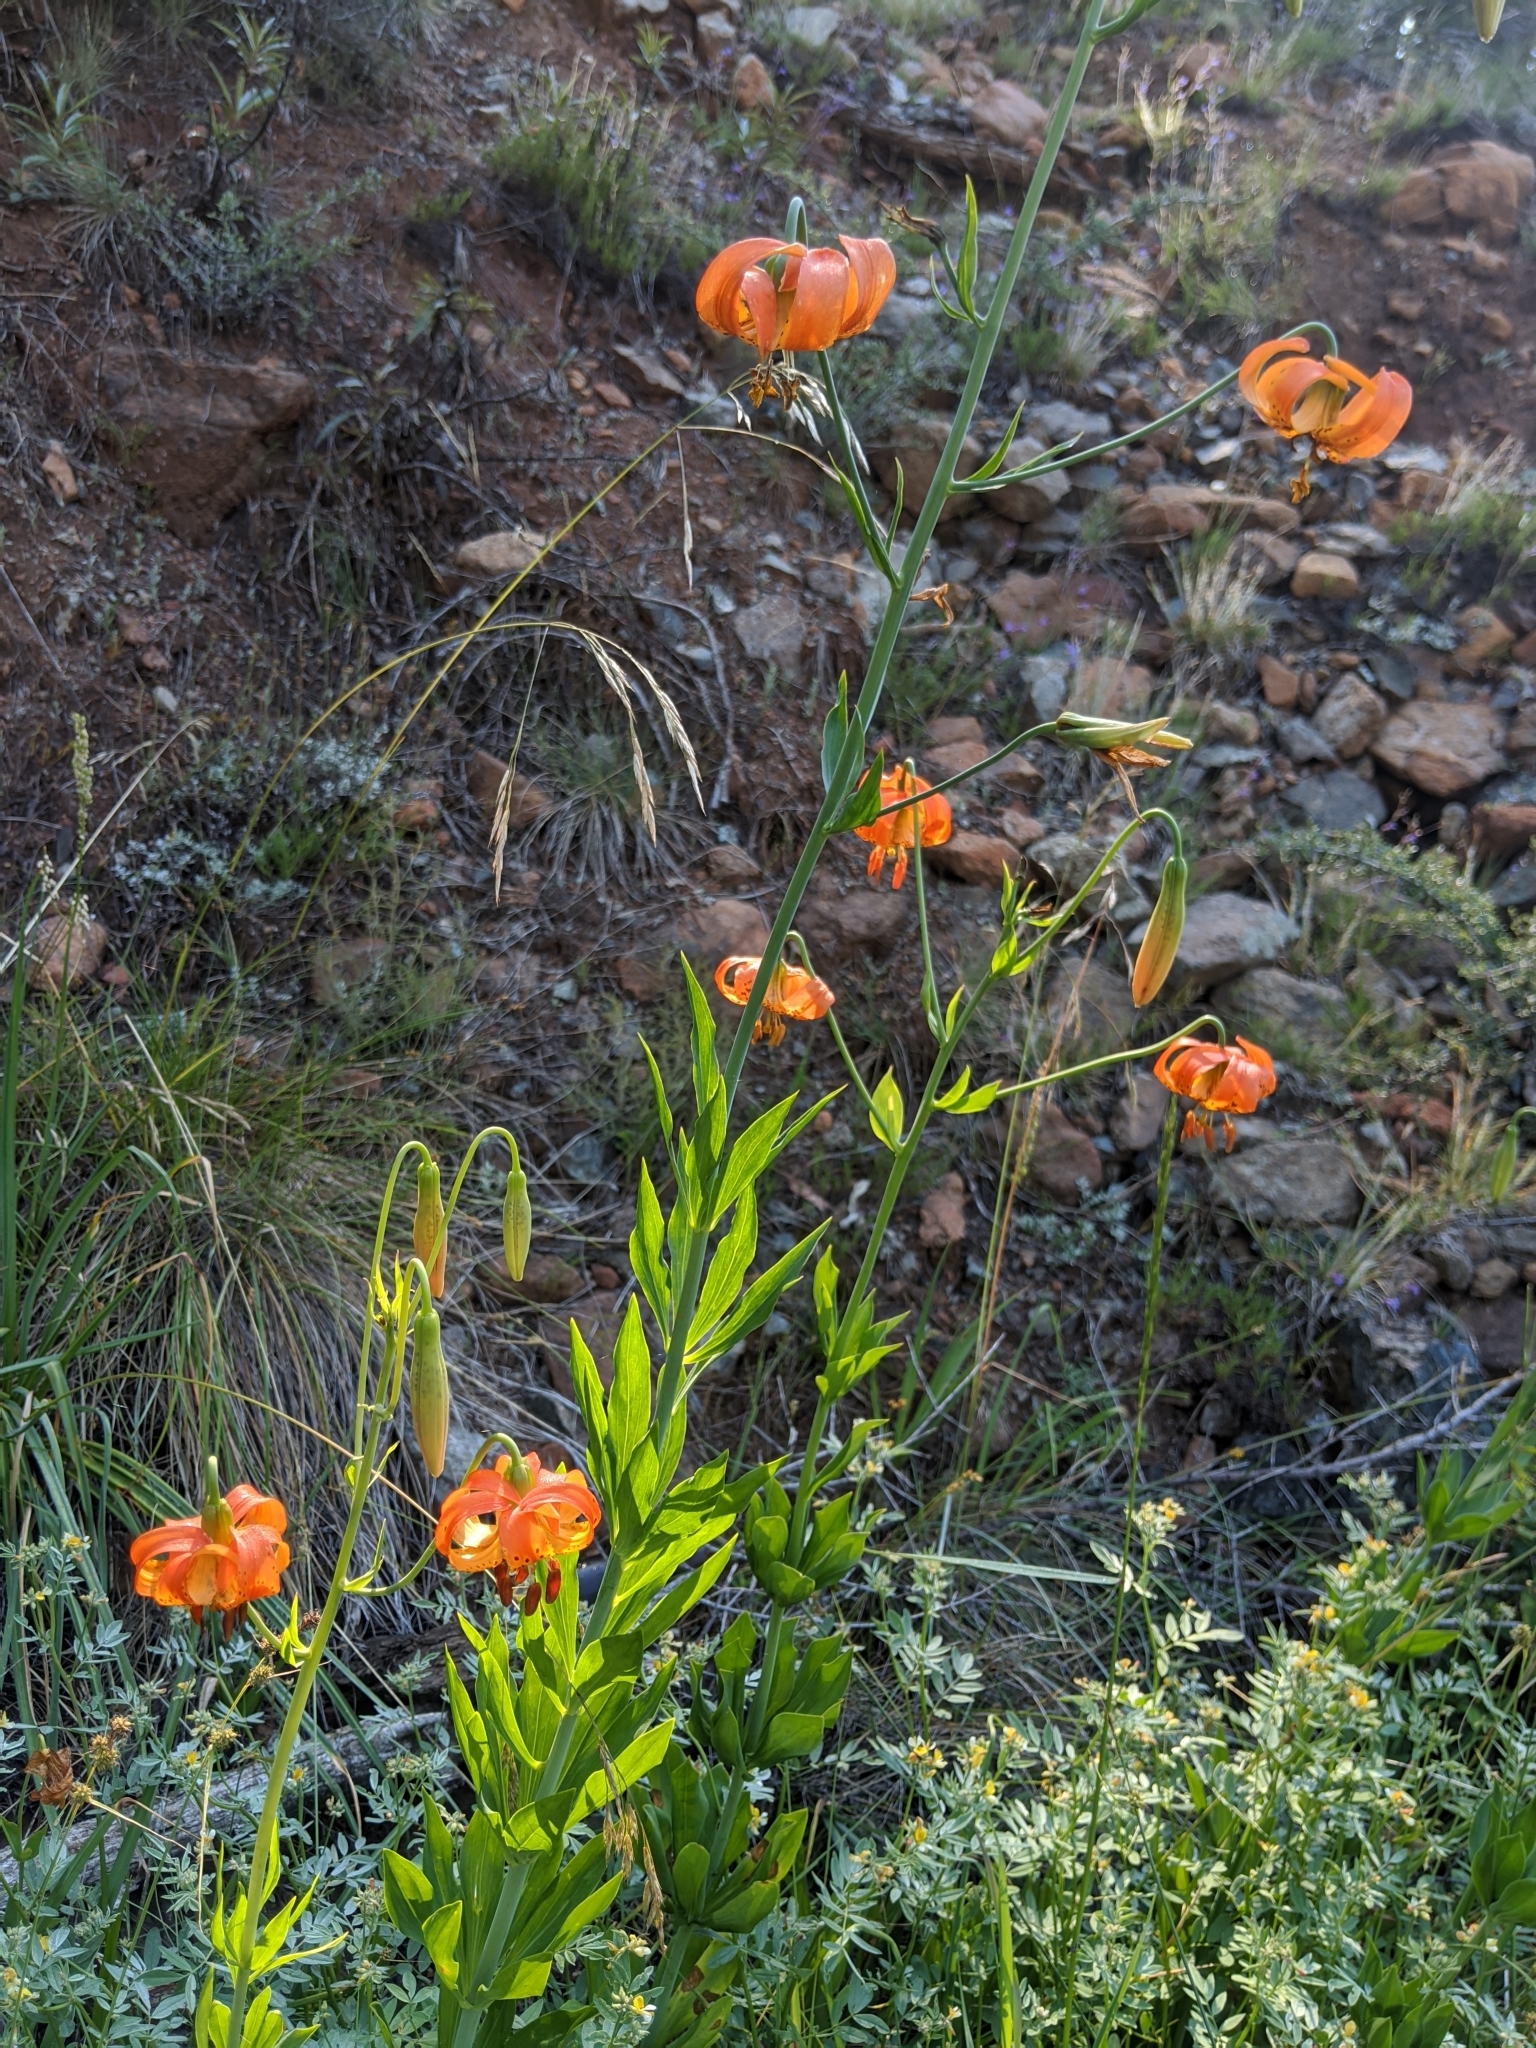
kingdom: Plantae
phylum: Tracheophyta
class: Liliopsida
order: Liliales
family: Liliaceae
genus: Lilium
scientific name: Lilium pardalinum
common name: Panther lily
